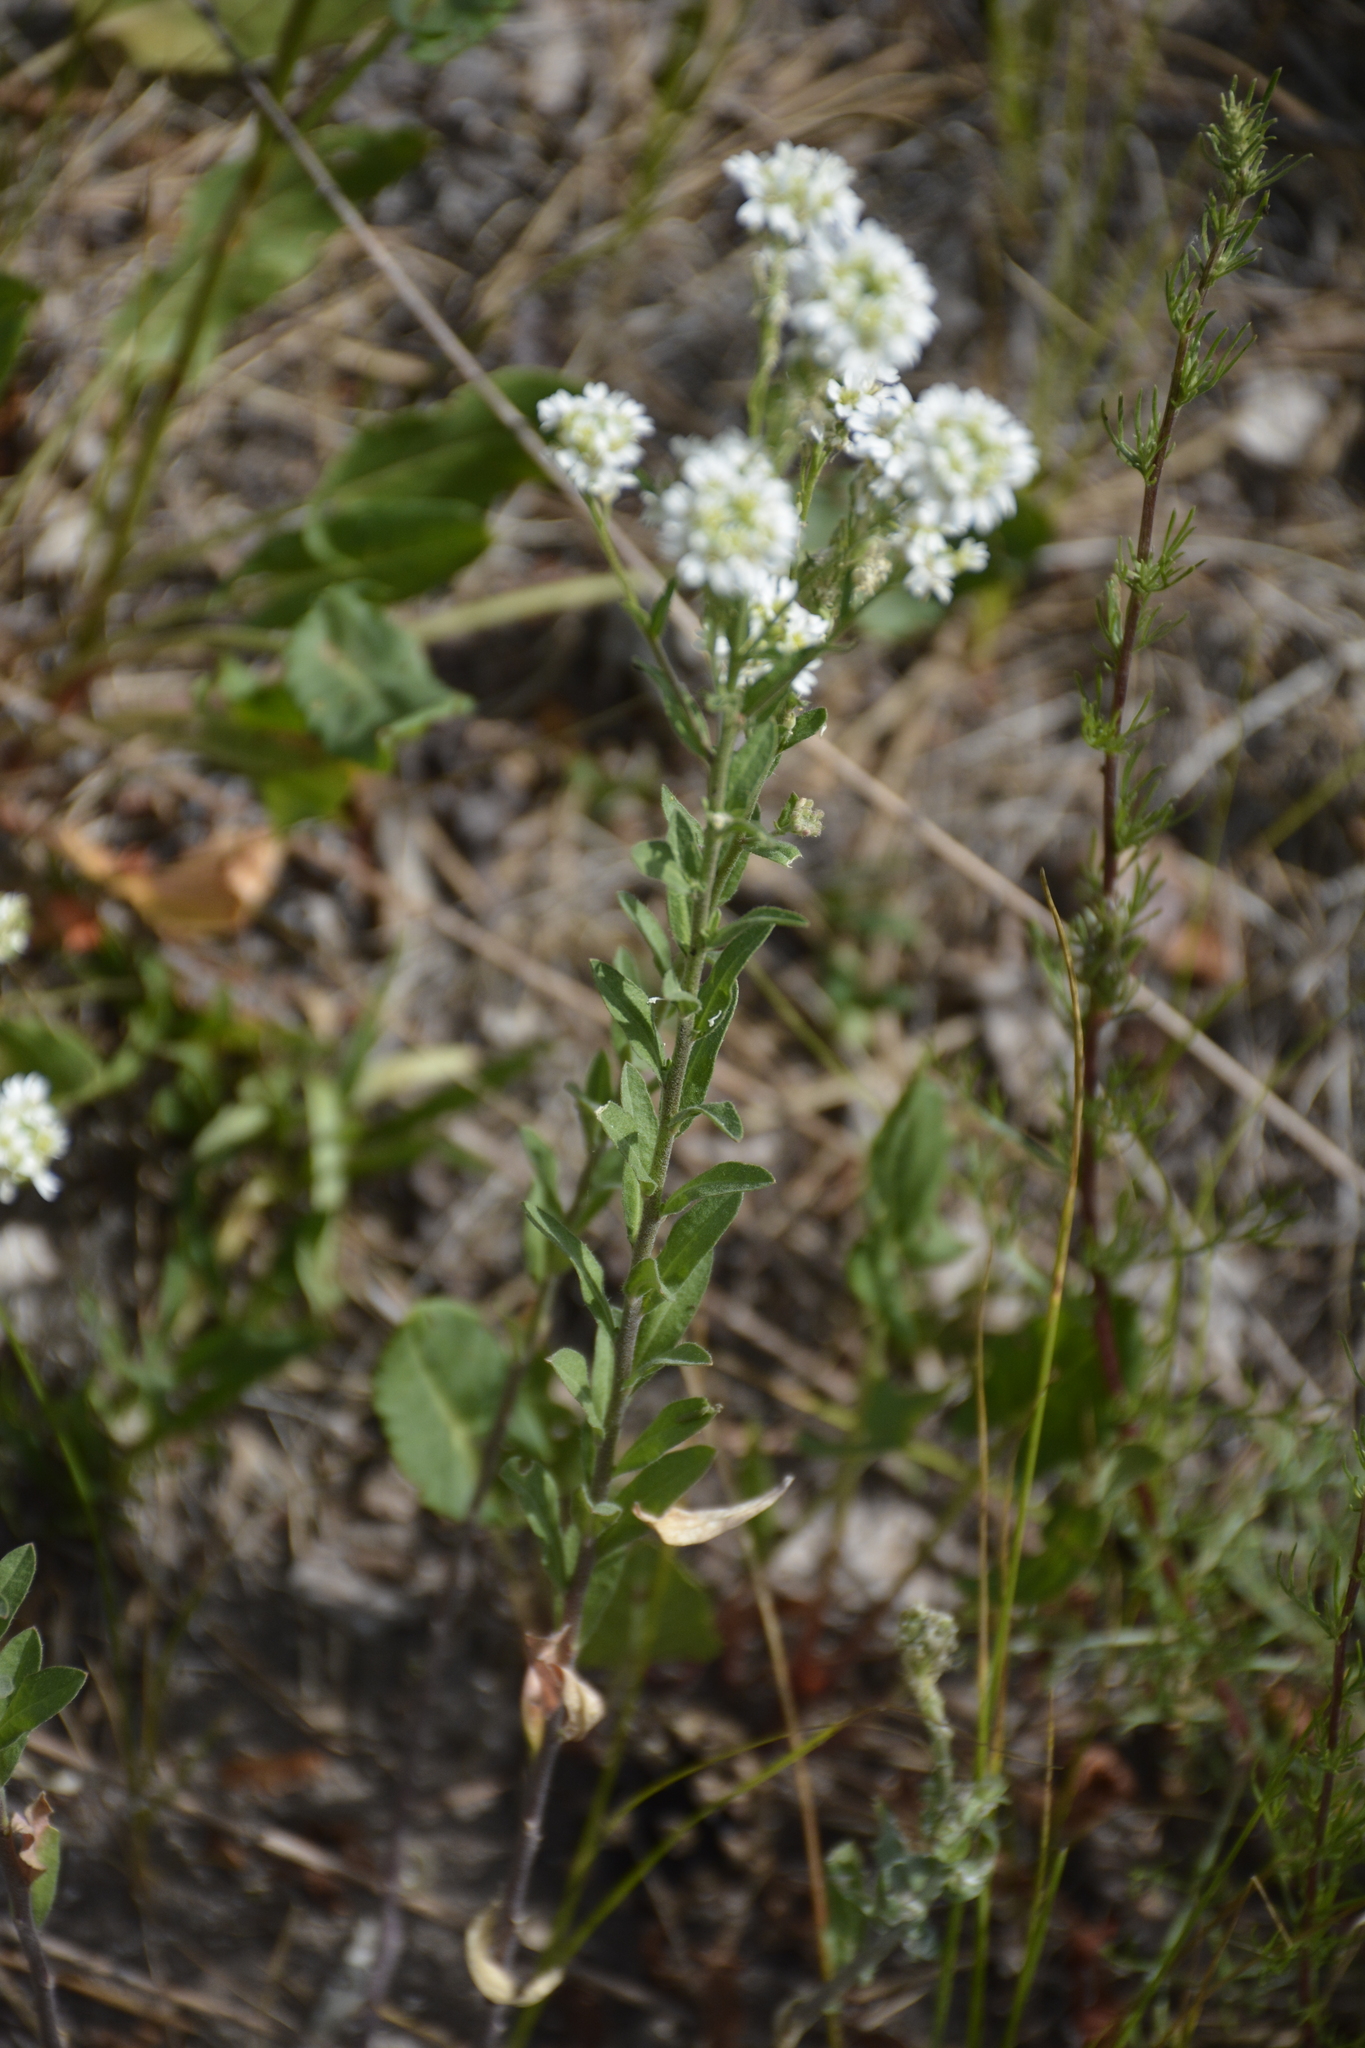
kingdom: Plantae
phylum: Tracheophyta
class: Magnoliopsida
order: Brassicales
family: Brassicaceae
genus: Berteroa
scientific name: Berteroa incana
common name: Hoary alison
